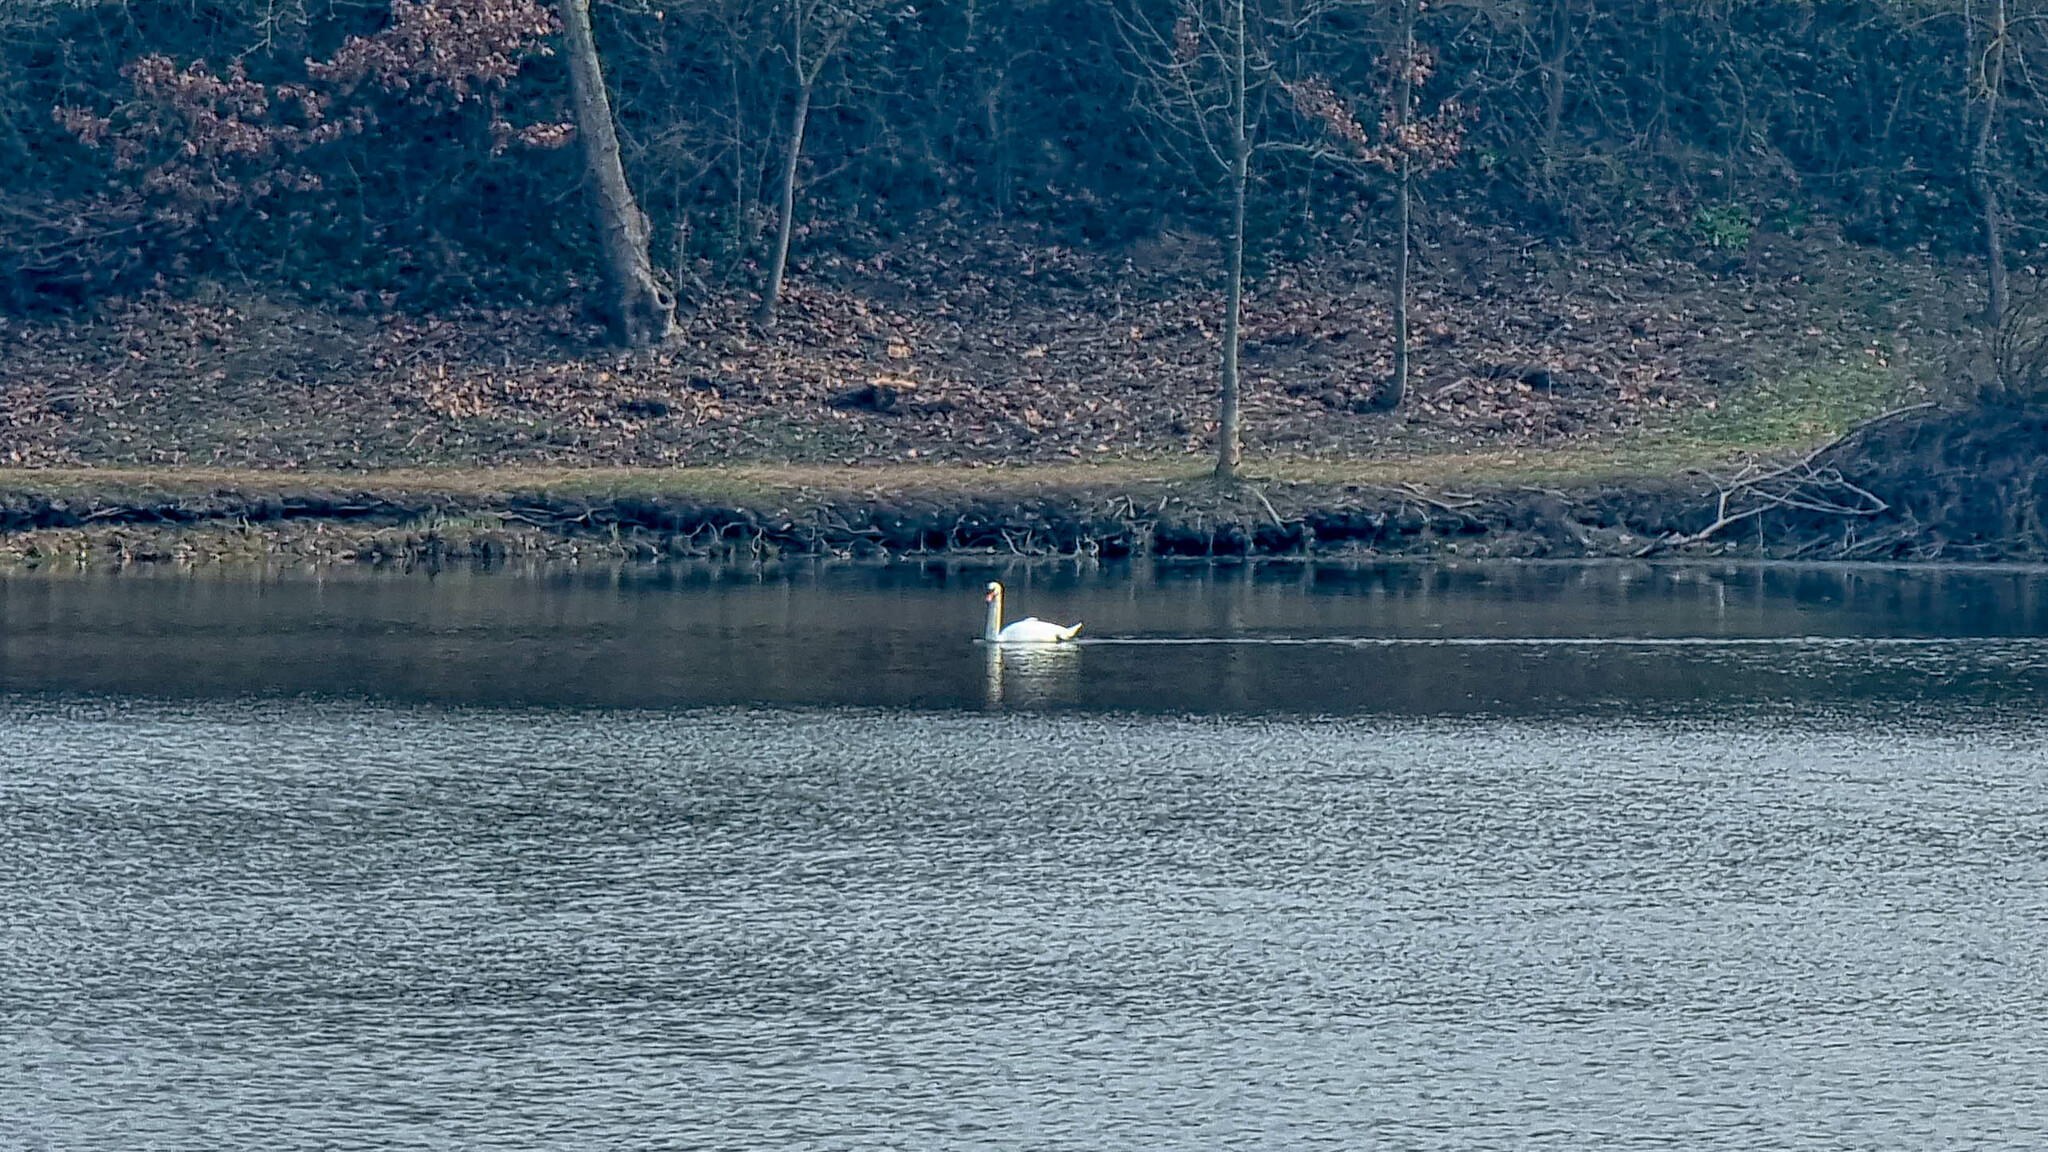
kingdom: Animalia
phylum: Chordata
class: Aves
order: Anseriformes
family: Anatidae
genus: Cygnus
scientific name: Cygnus olor
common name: Mute swan
